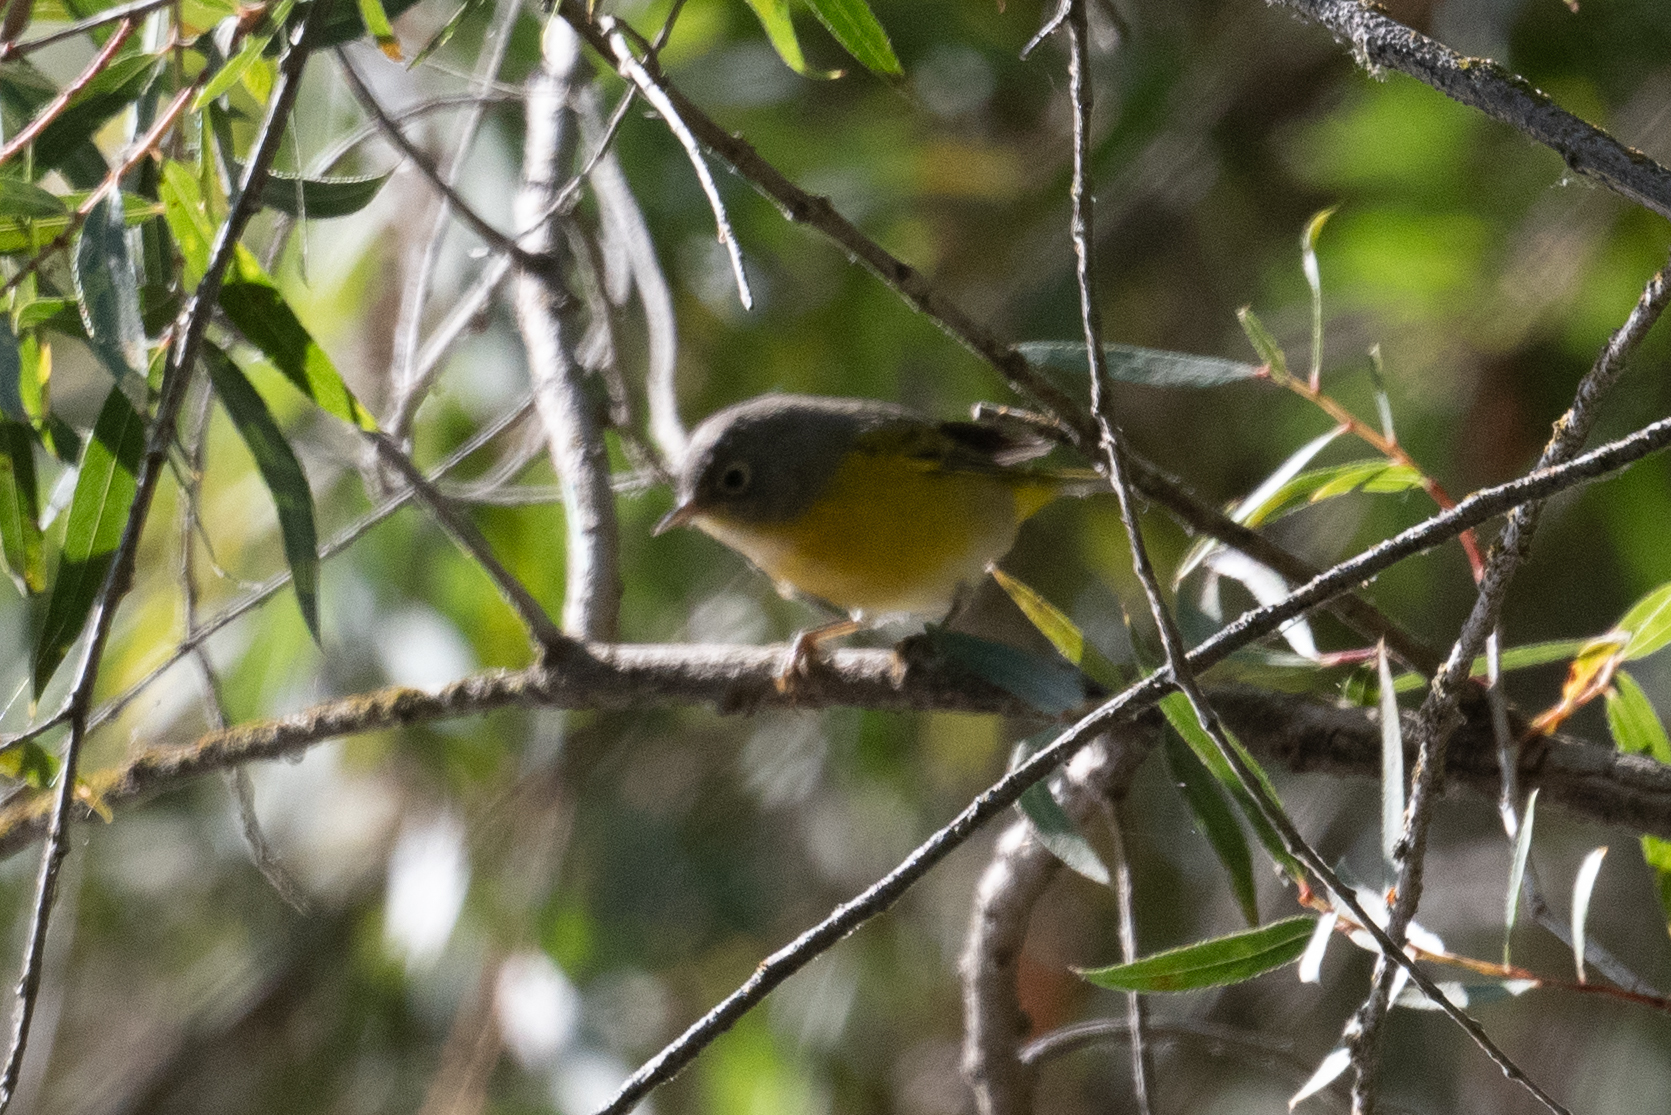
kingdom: Animalia
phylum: Chordata
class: Aves
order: Passeriformes
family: Parulidae
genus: Leiothlypis
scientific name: Leiothlypis ruficapilla
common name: Nashville warbler
